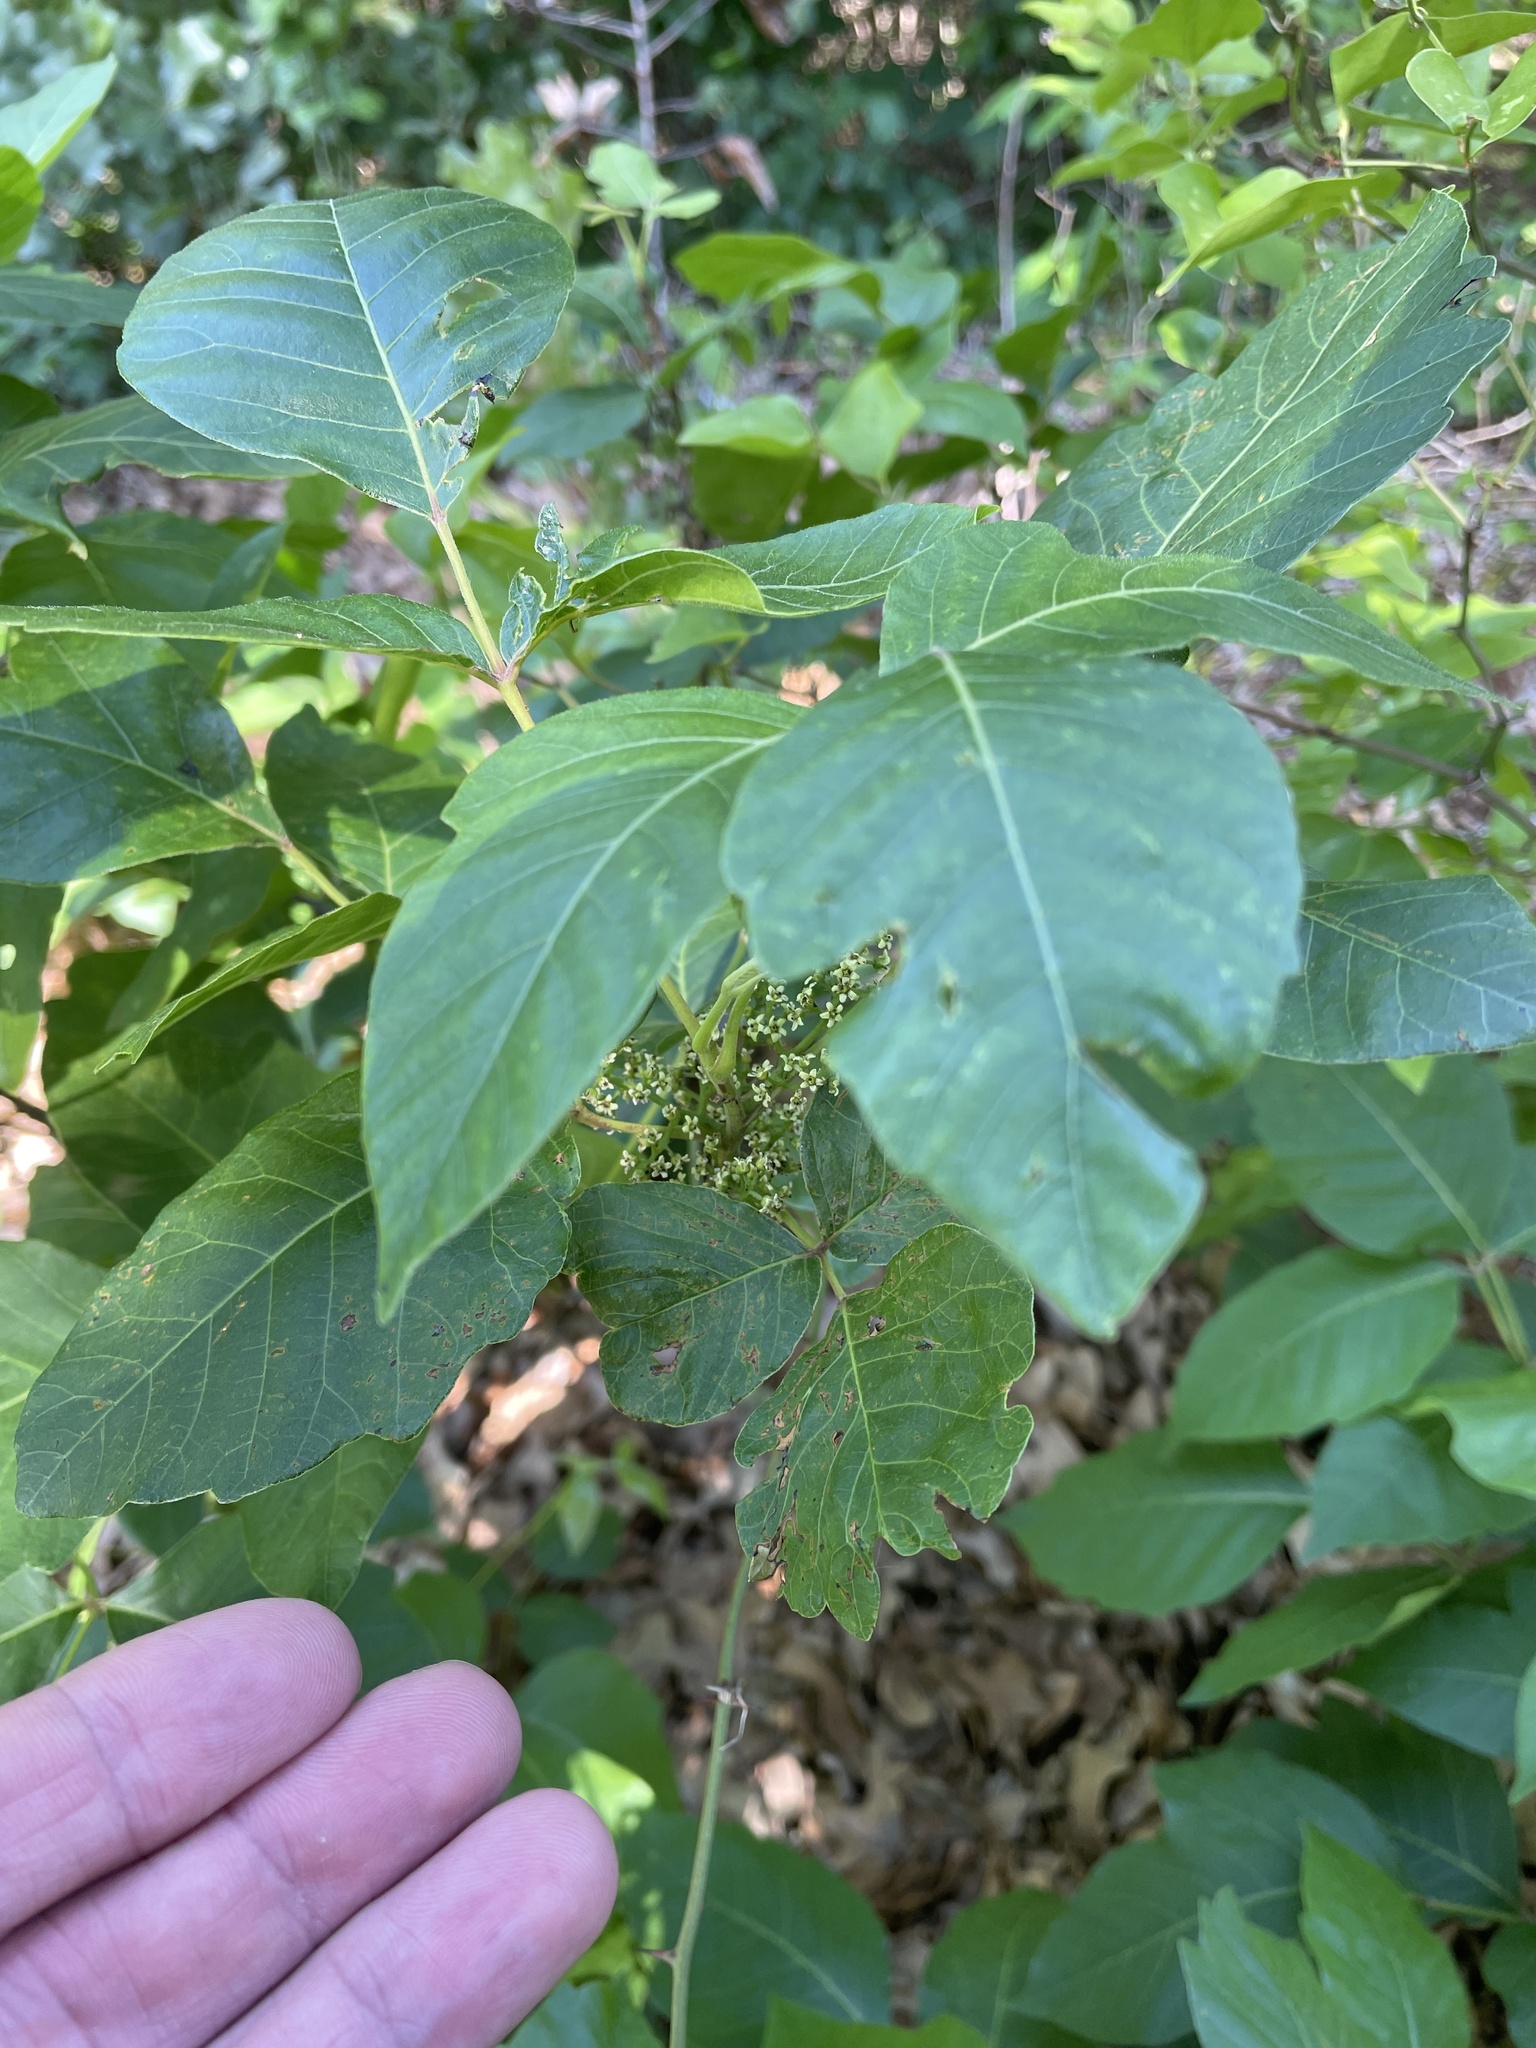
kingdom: Plantae
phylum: Tracheophyta
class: Magnoliopsida
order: Sapindales
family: Anacardiaceae
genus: Toxicodendron
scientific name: Toxicodendron radicans
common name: Poison ivy
